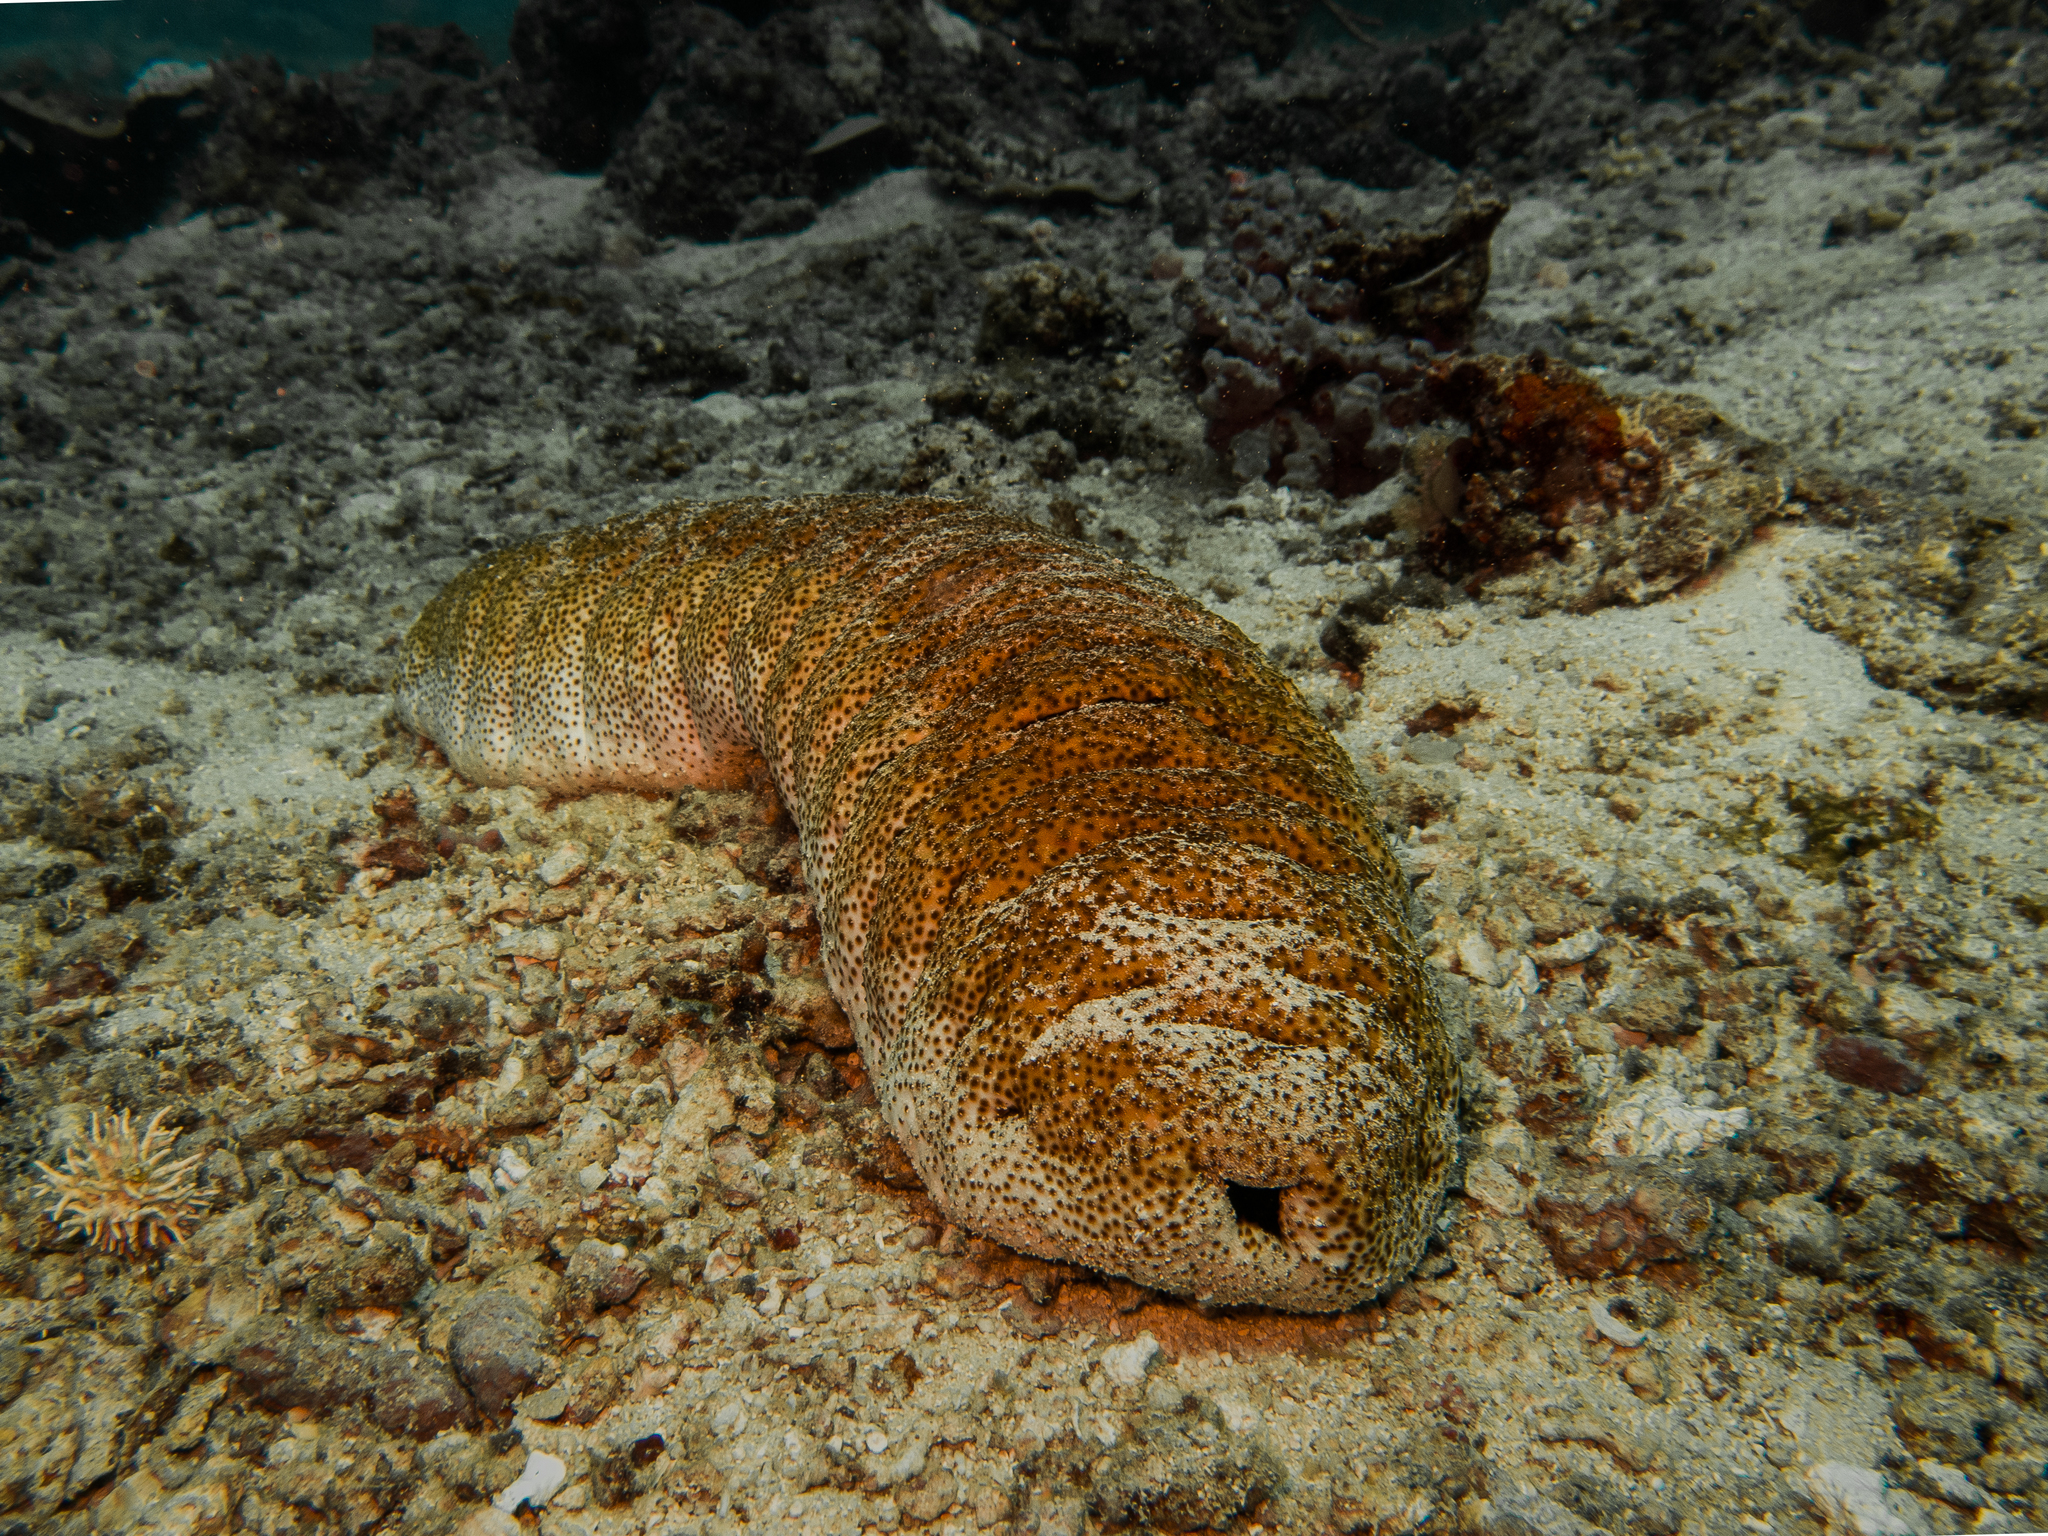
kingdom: Animalia
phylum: Echinodermata
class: Holothuroidea
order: Holothuriida
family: Holothuriidae
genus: Holothuria
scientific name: Holothuria fuscopunctata
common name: Elephant trunkfish
